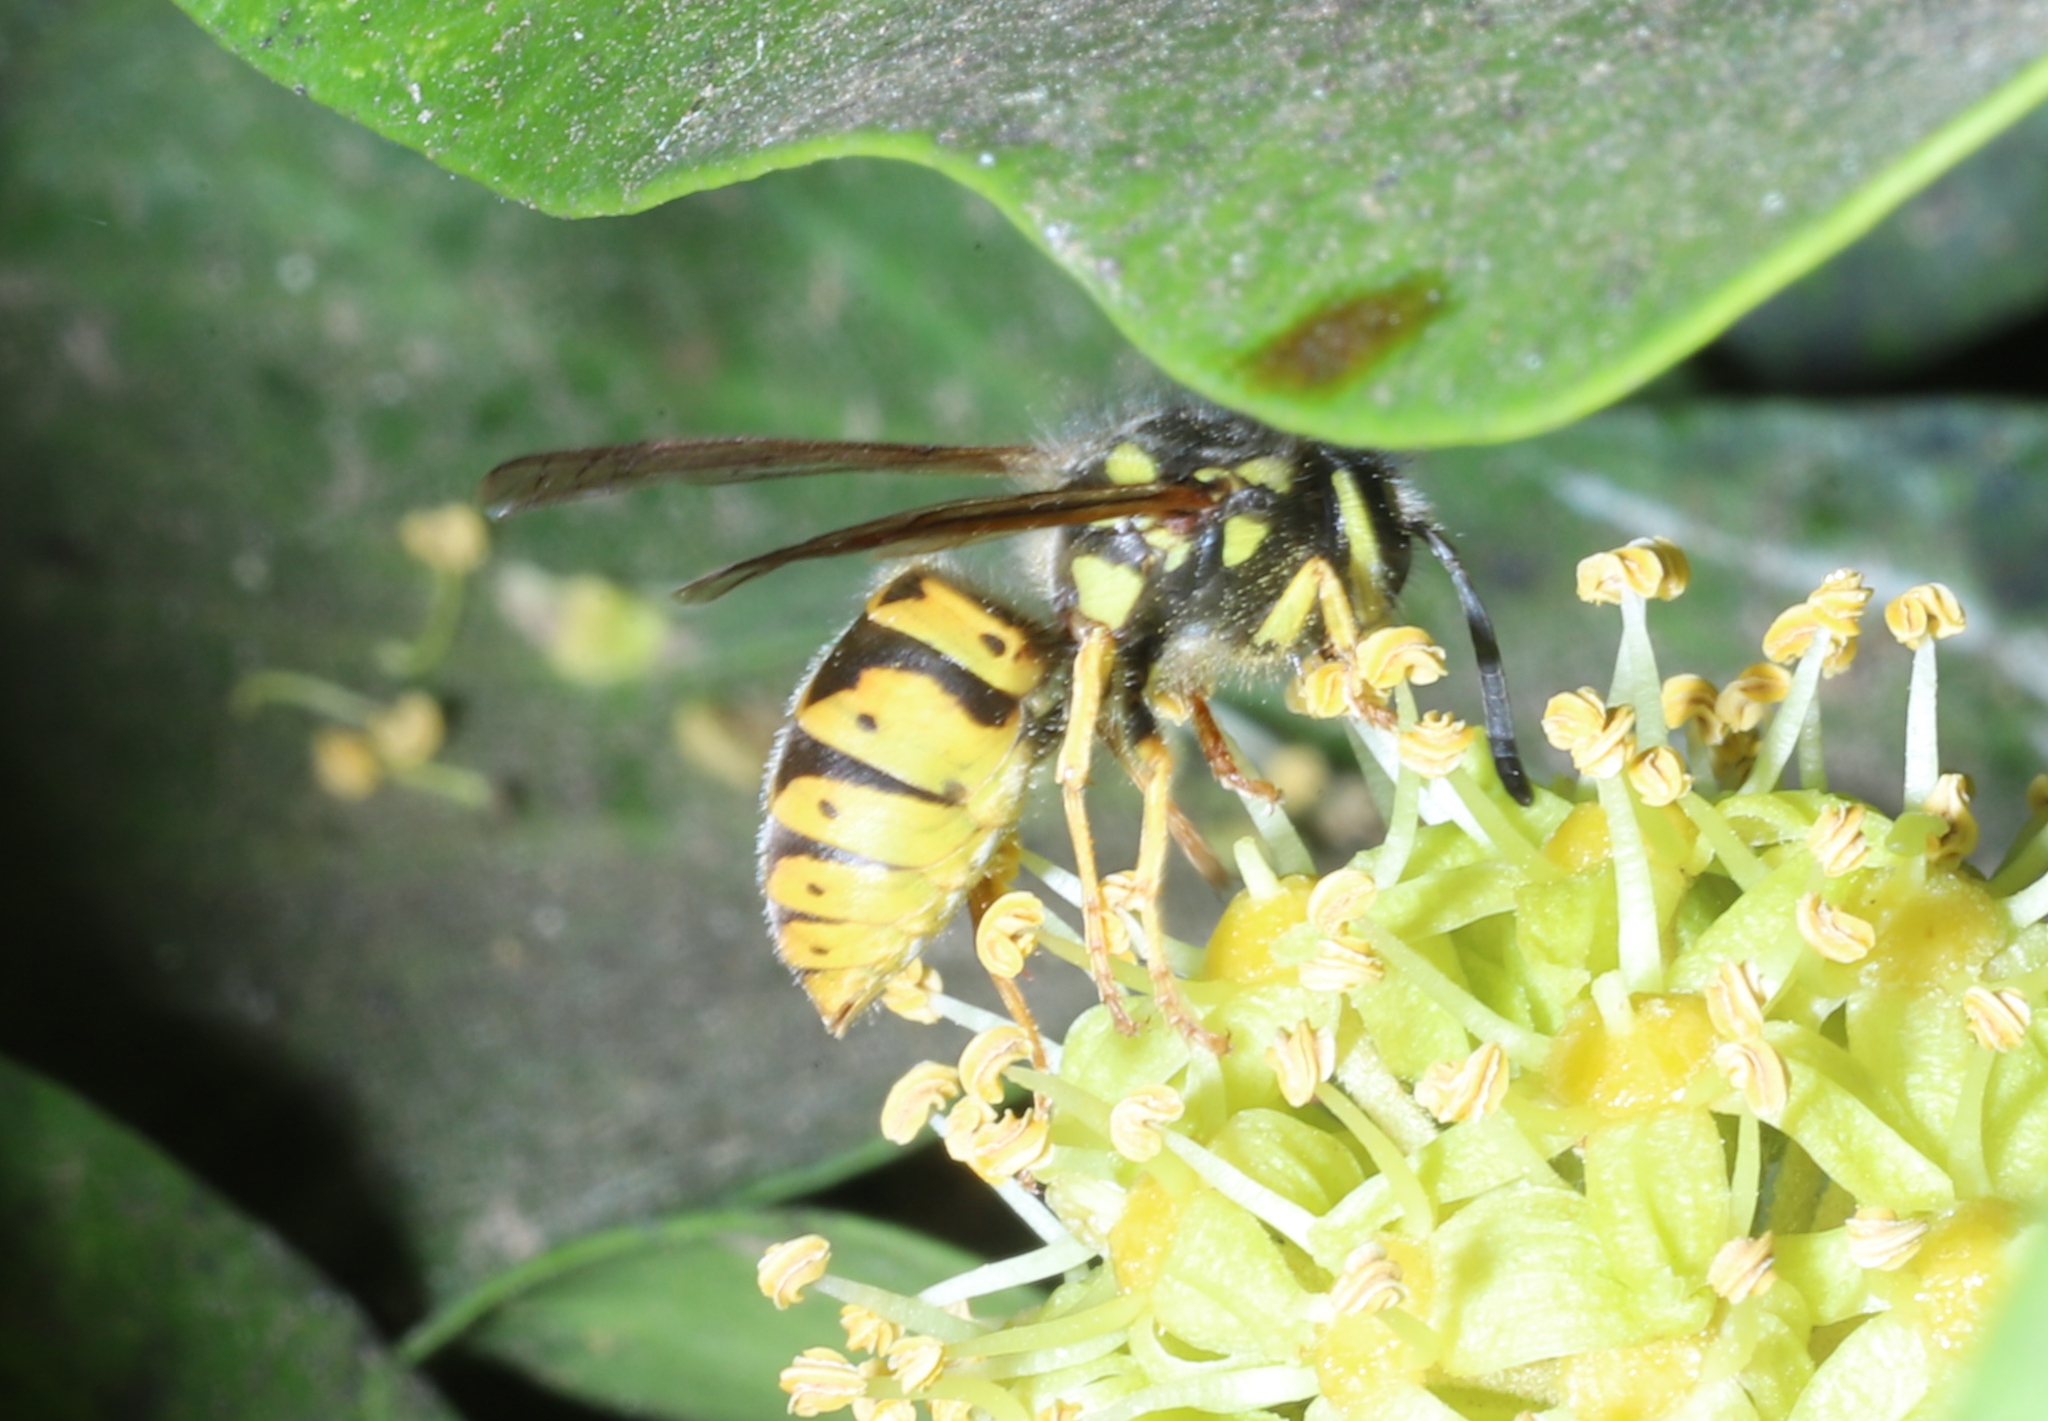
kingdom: Animalia
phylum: Arthropoda
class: Insecta
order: Hymenoptera
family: Vespidae
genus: Vespula
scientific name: Vespula germanica
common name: German wasp
